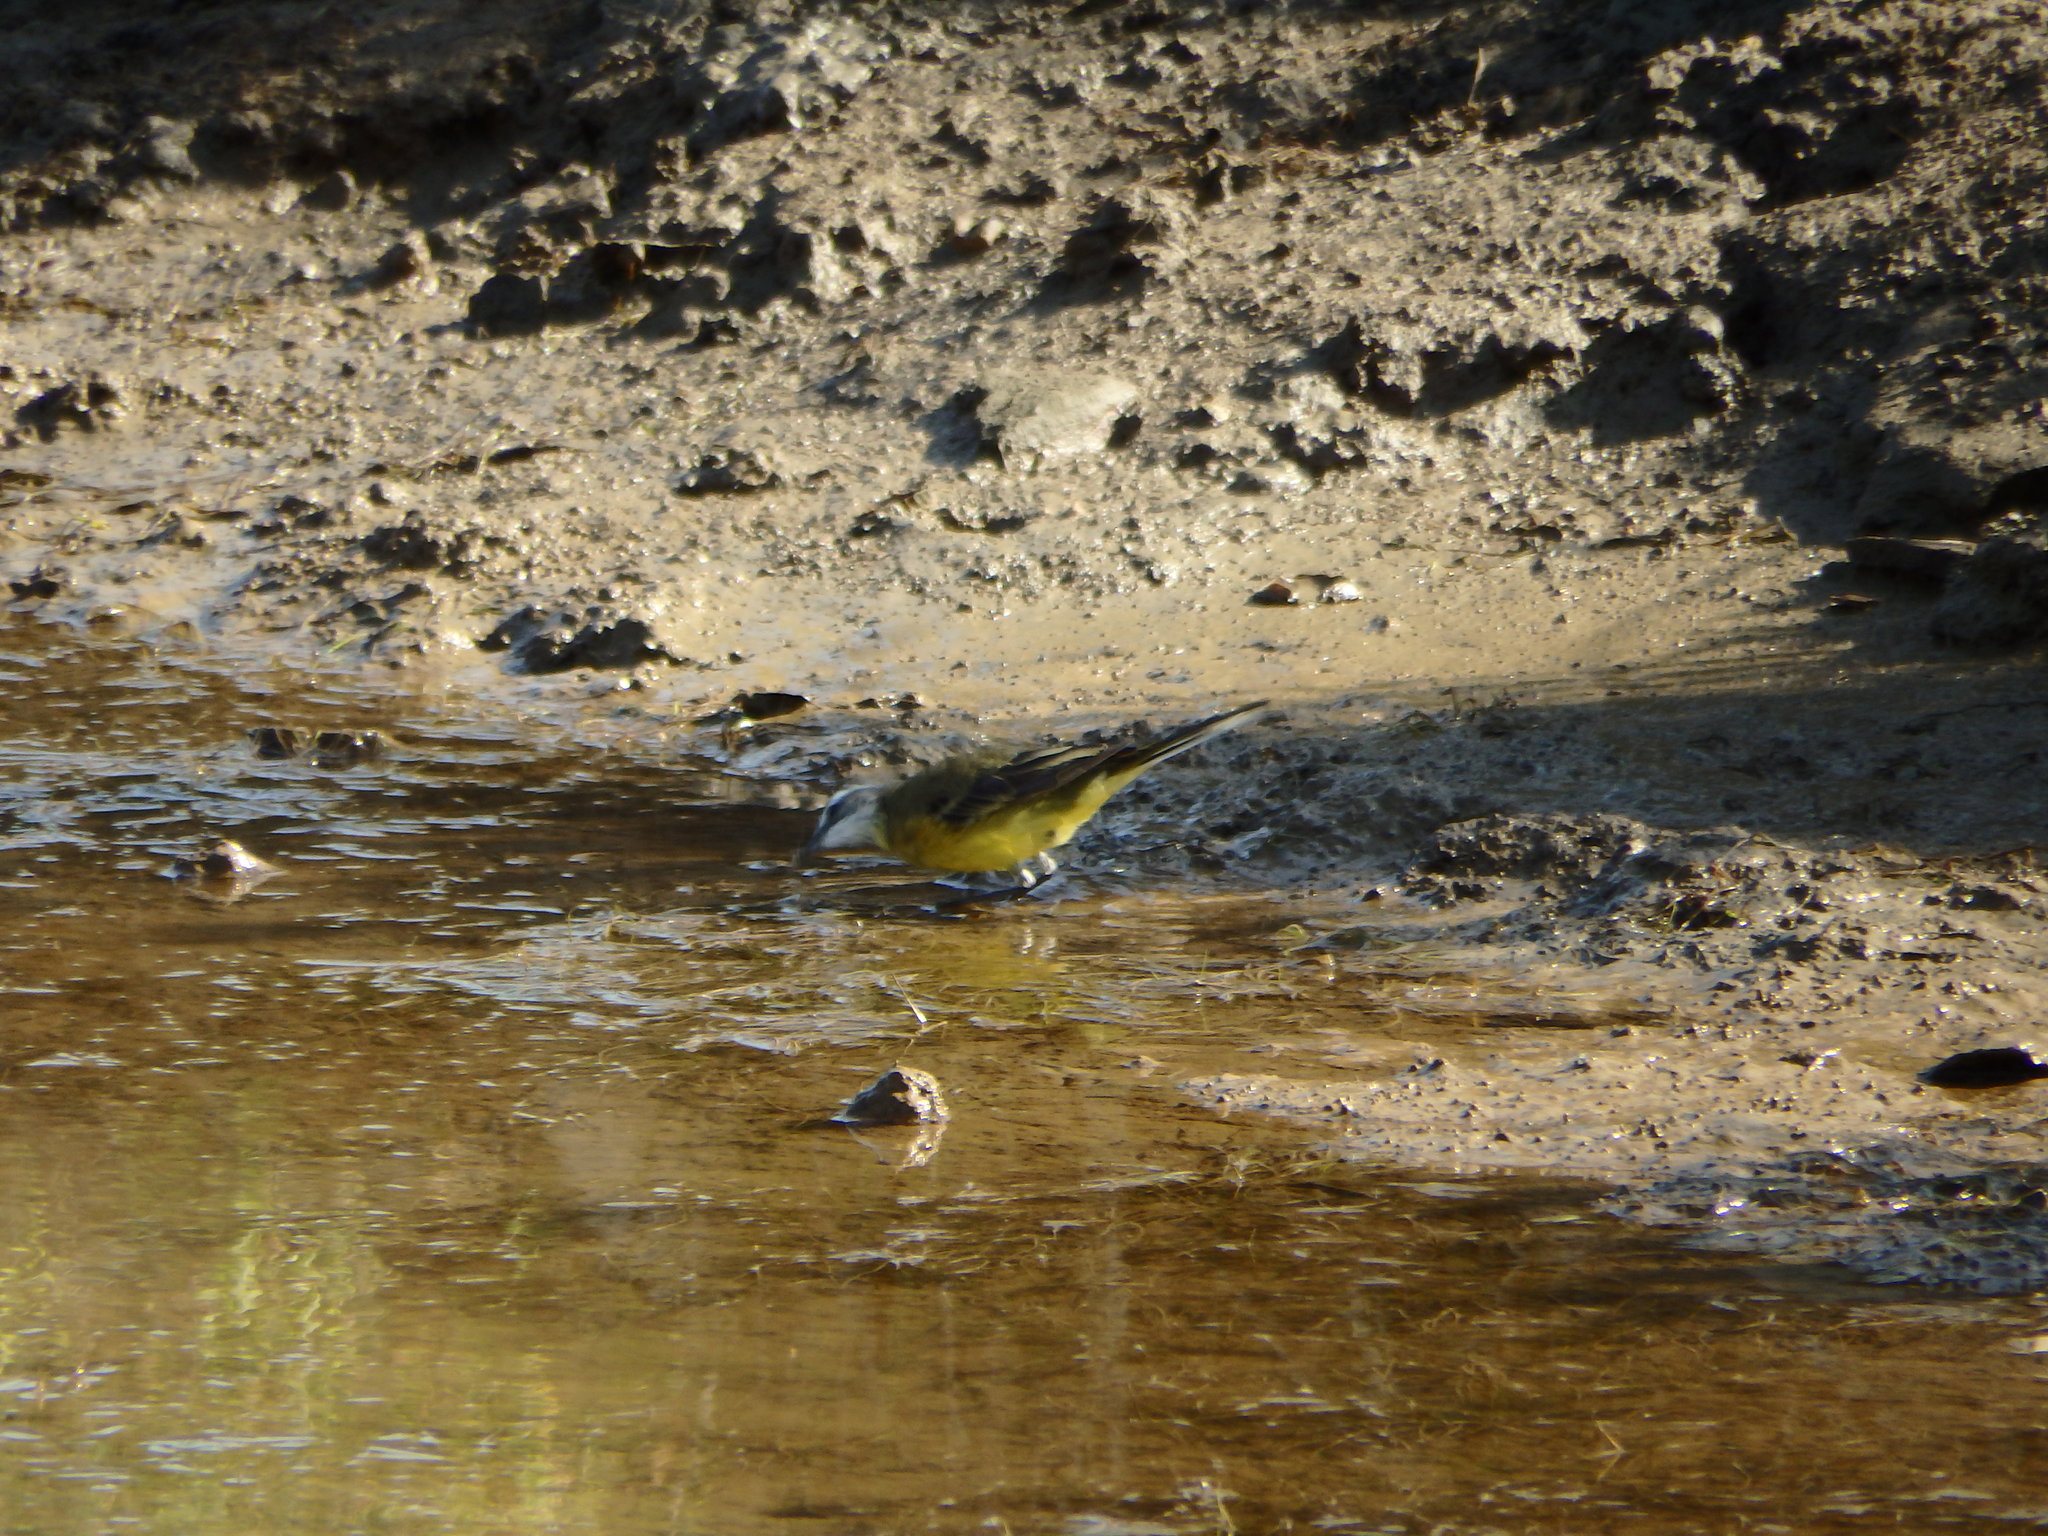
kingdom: Animalia
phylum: Chordata
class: Aves
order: Passeriformes
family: Motacillidae
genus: Motacilla
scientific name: Motacilla flava
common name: Western yellow wagtail
